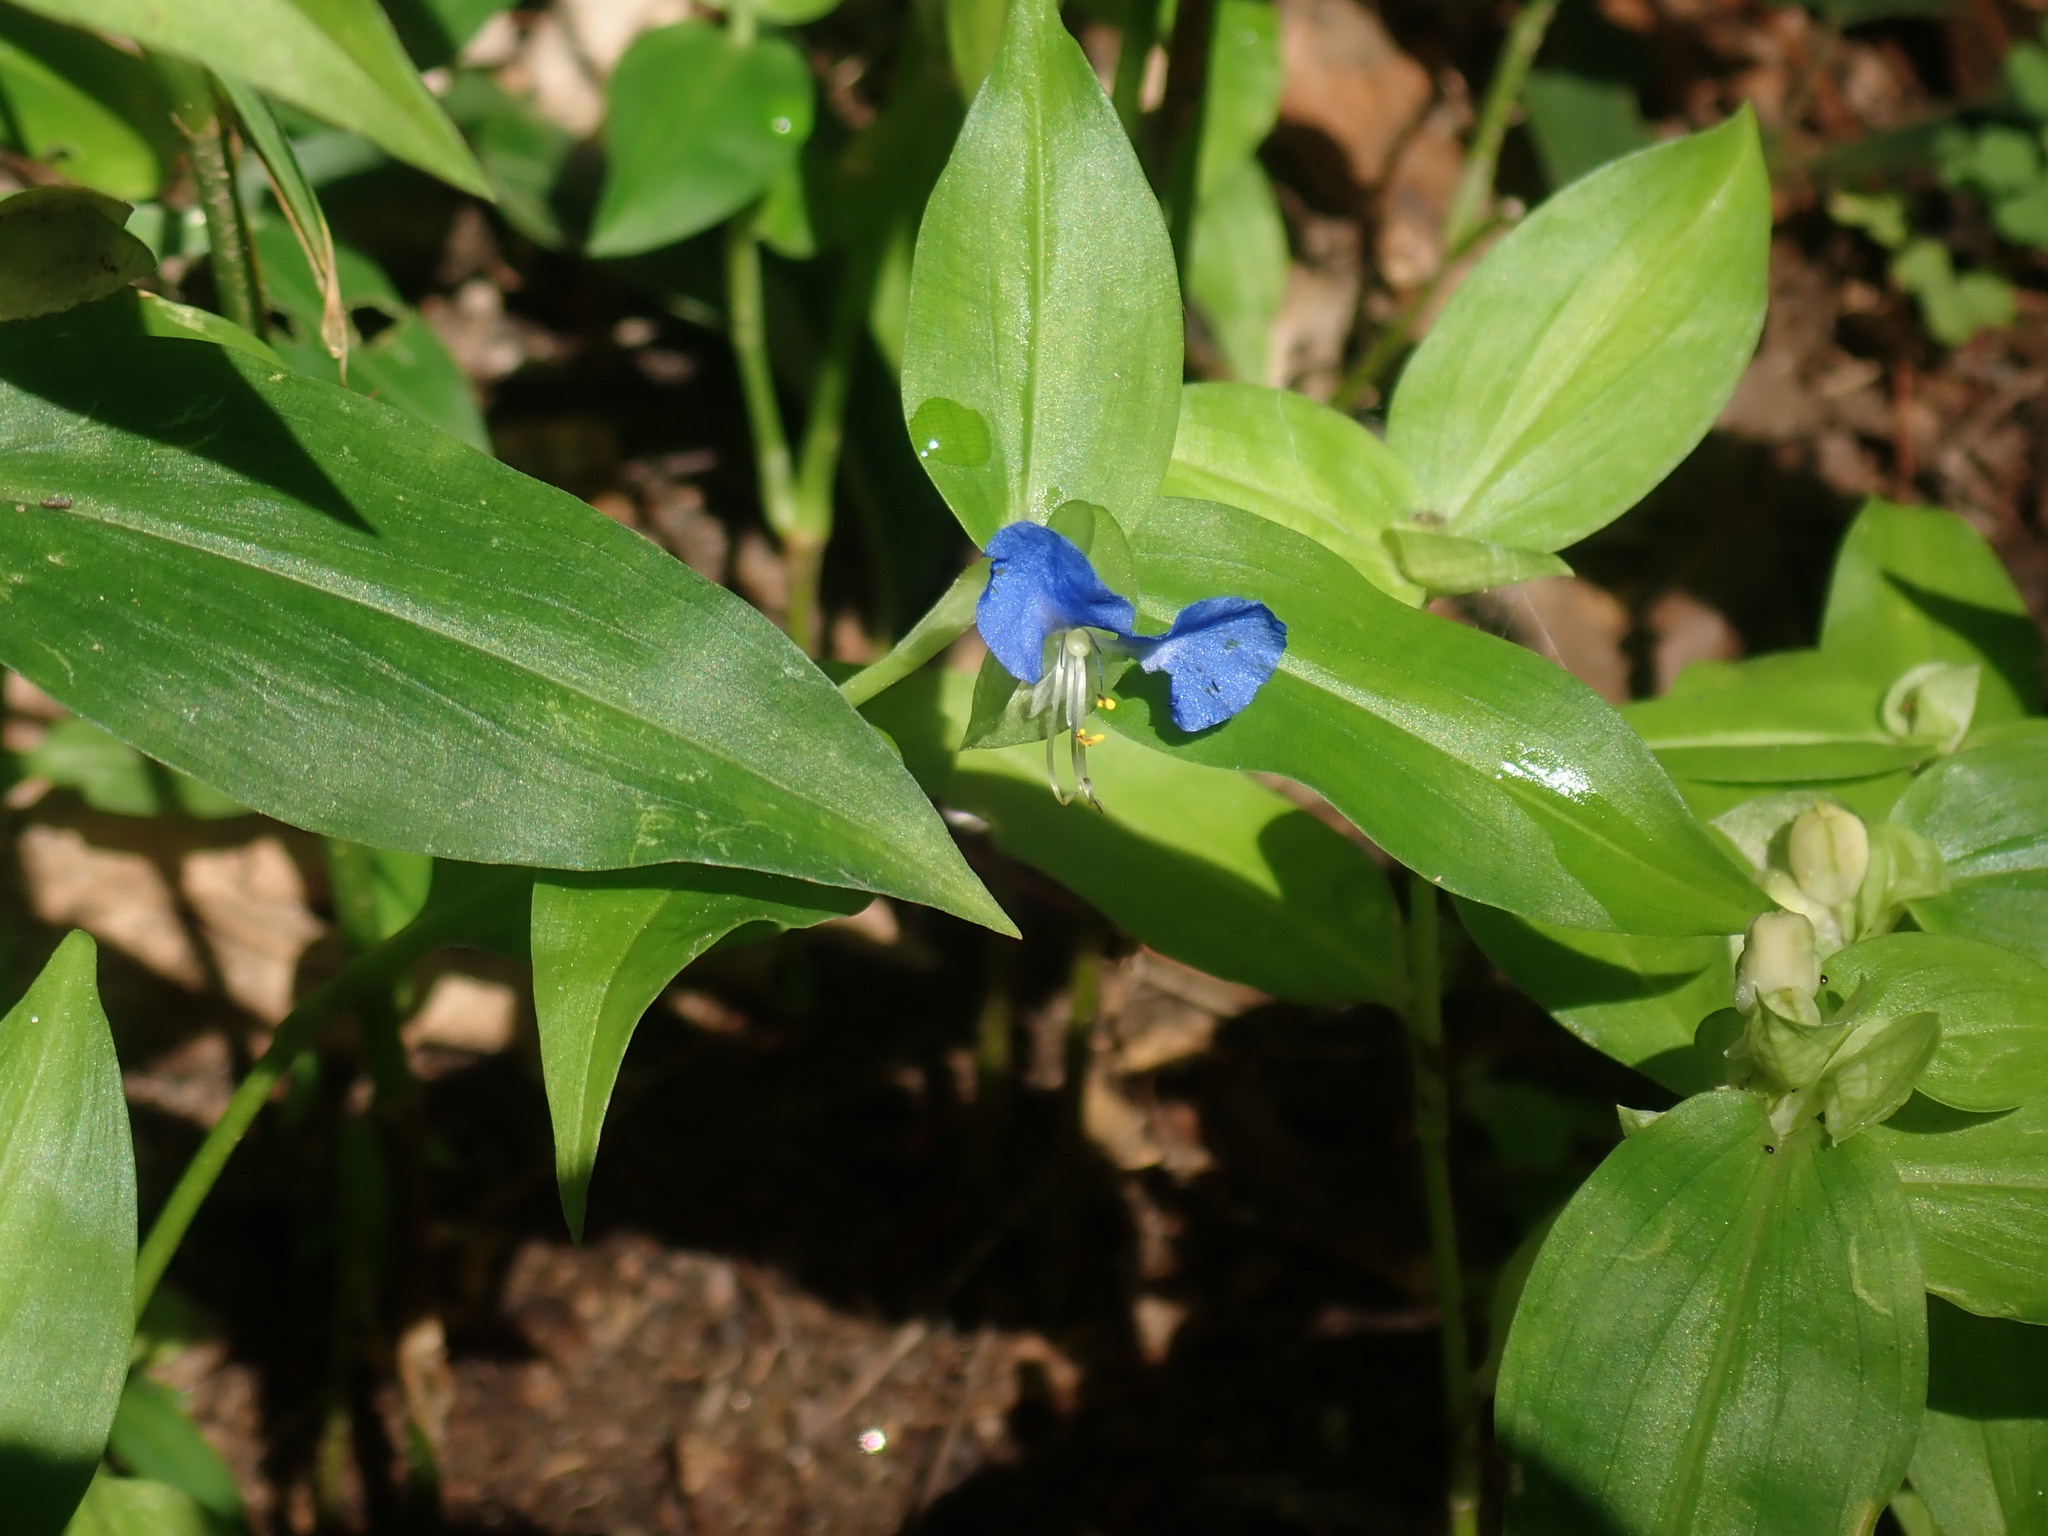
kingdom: Plantae
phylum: Tracheophyta
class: Liliopsida
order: Commelinales
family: Commelinaceae
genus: Commelina
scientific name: Commelina communis
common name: Asiatic dayflower
